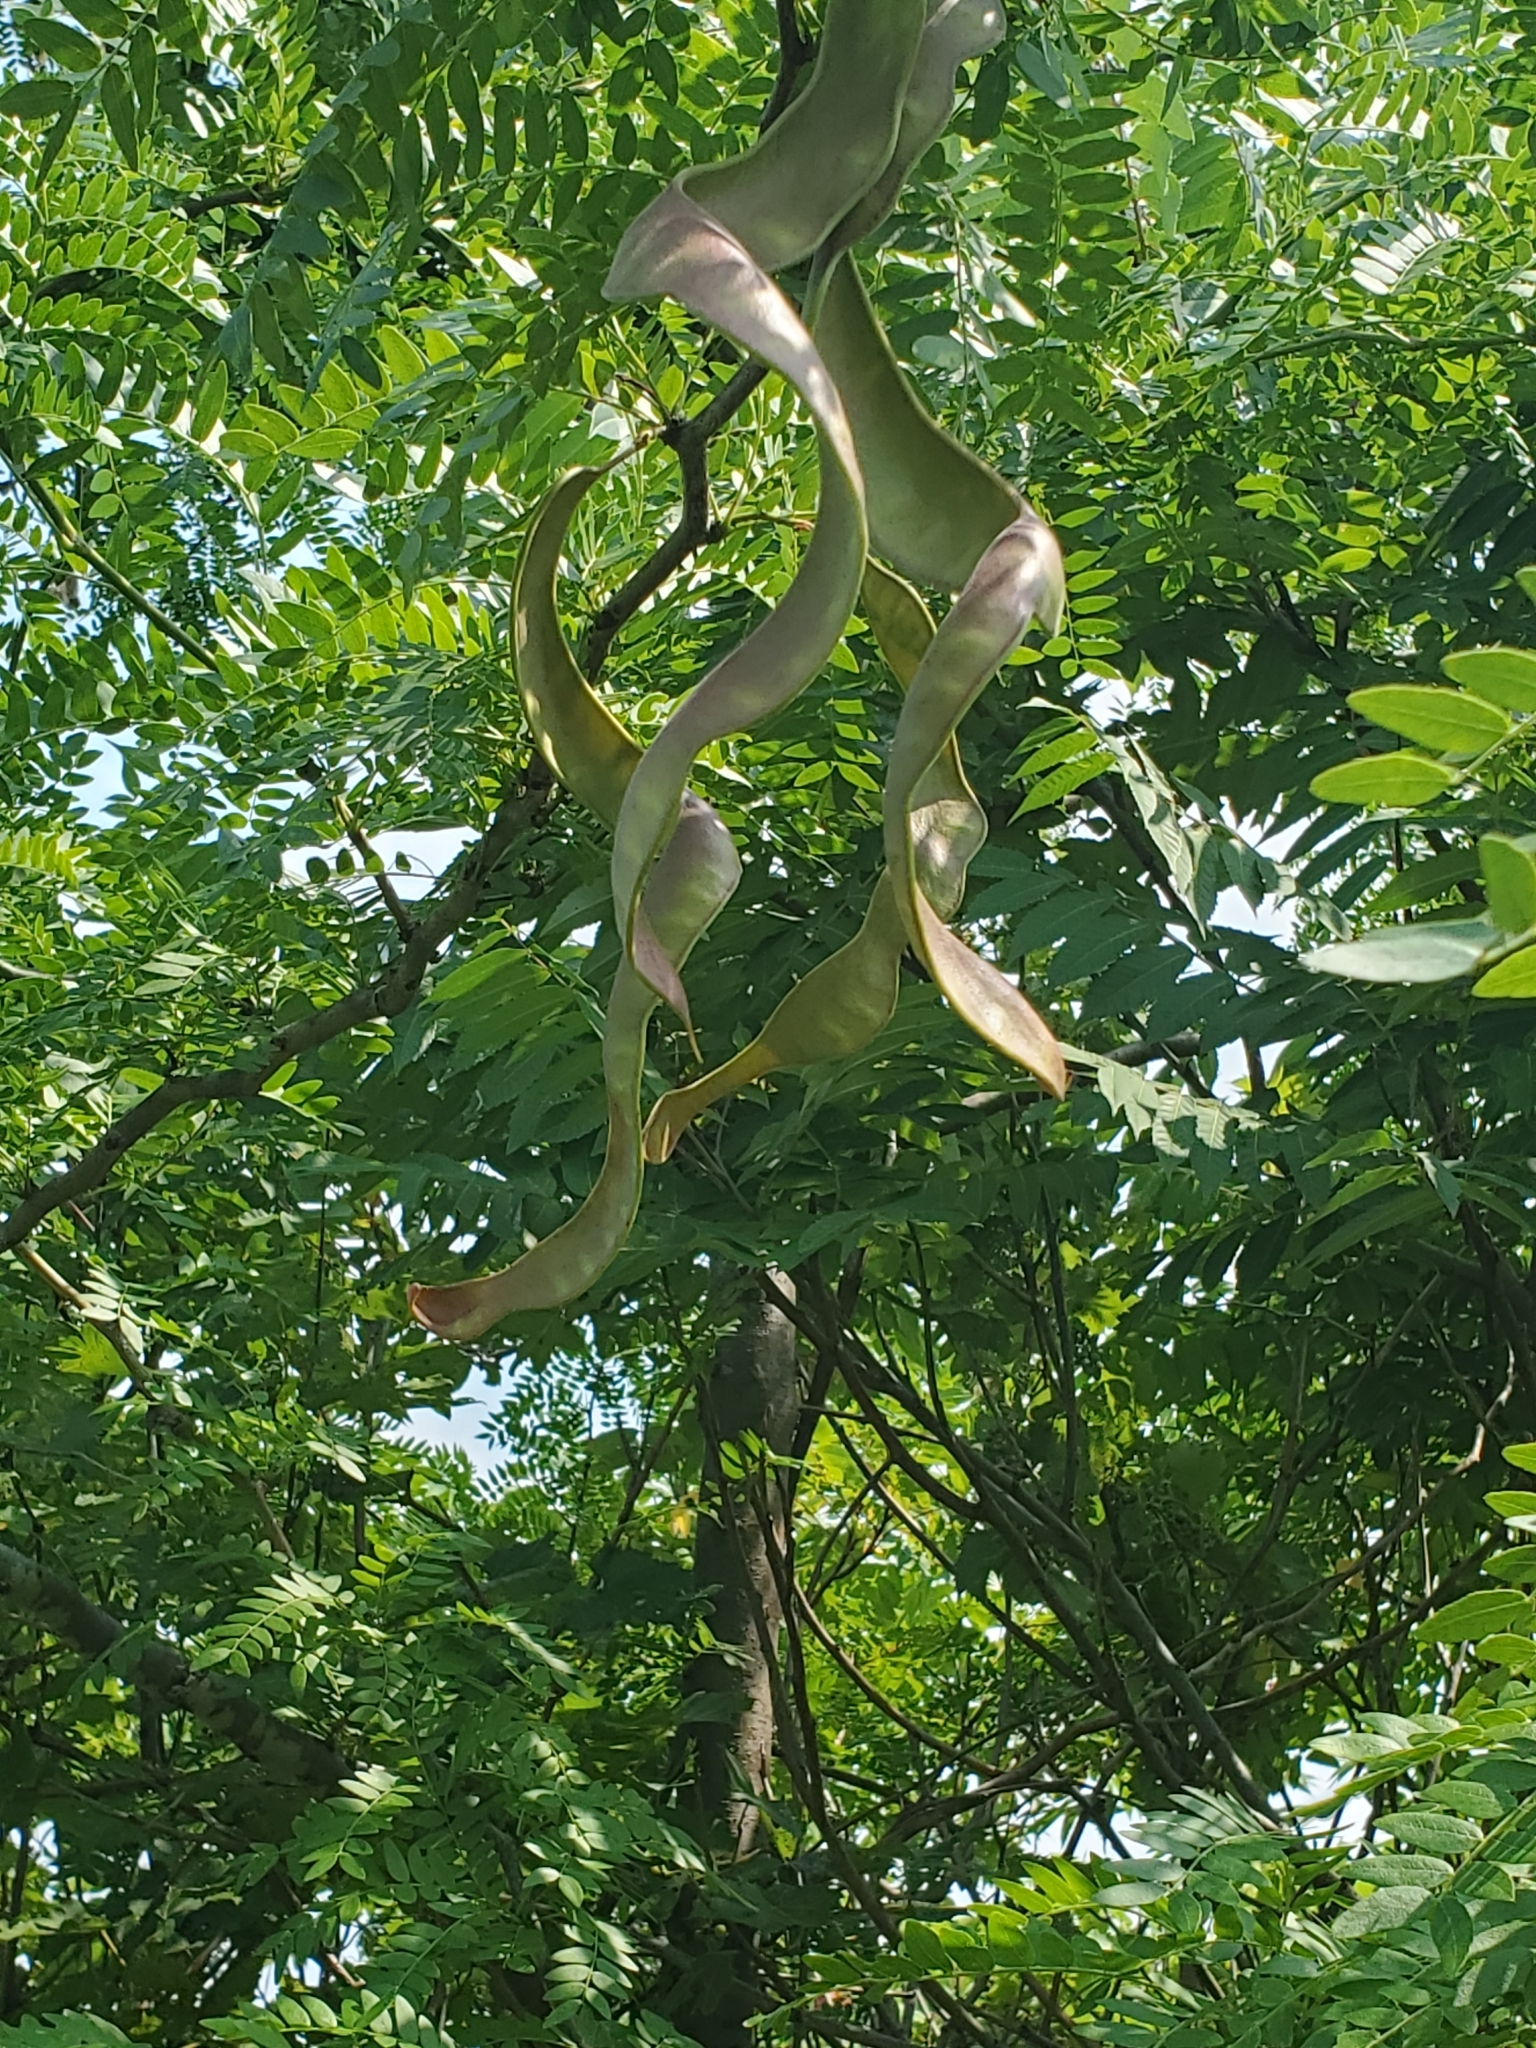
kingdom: Plantae
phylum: Tracheophyta
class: Magnoliopsida
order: Fabales
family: Fabaceae
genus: Gleditsia
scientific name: Gleditsia triacanthos
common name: Common honeylocust
